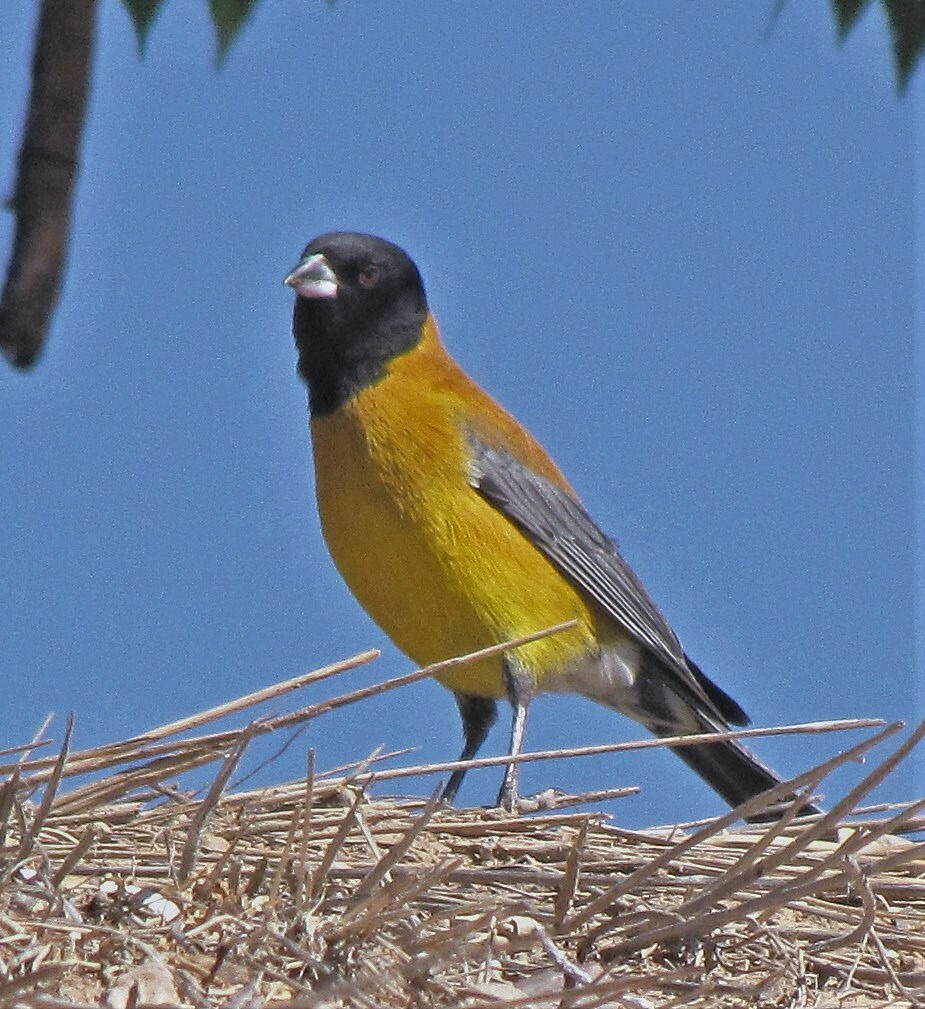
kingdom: Animalia
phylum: Chordata
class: Aves
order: Passeriformes
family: Thraupidae
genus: Phrygilus
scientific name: Phrygilus atriceps
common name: Black-hooded sierra finch
